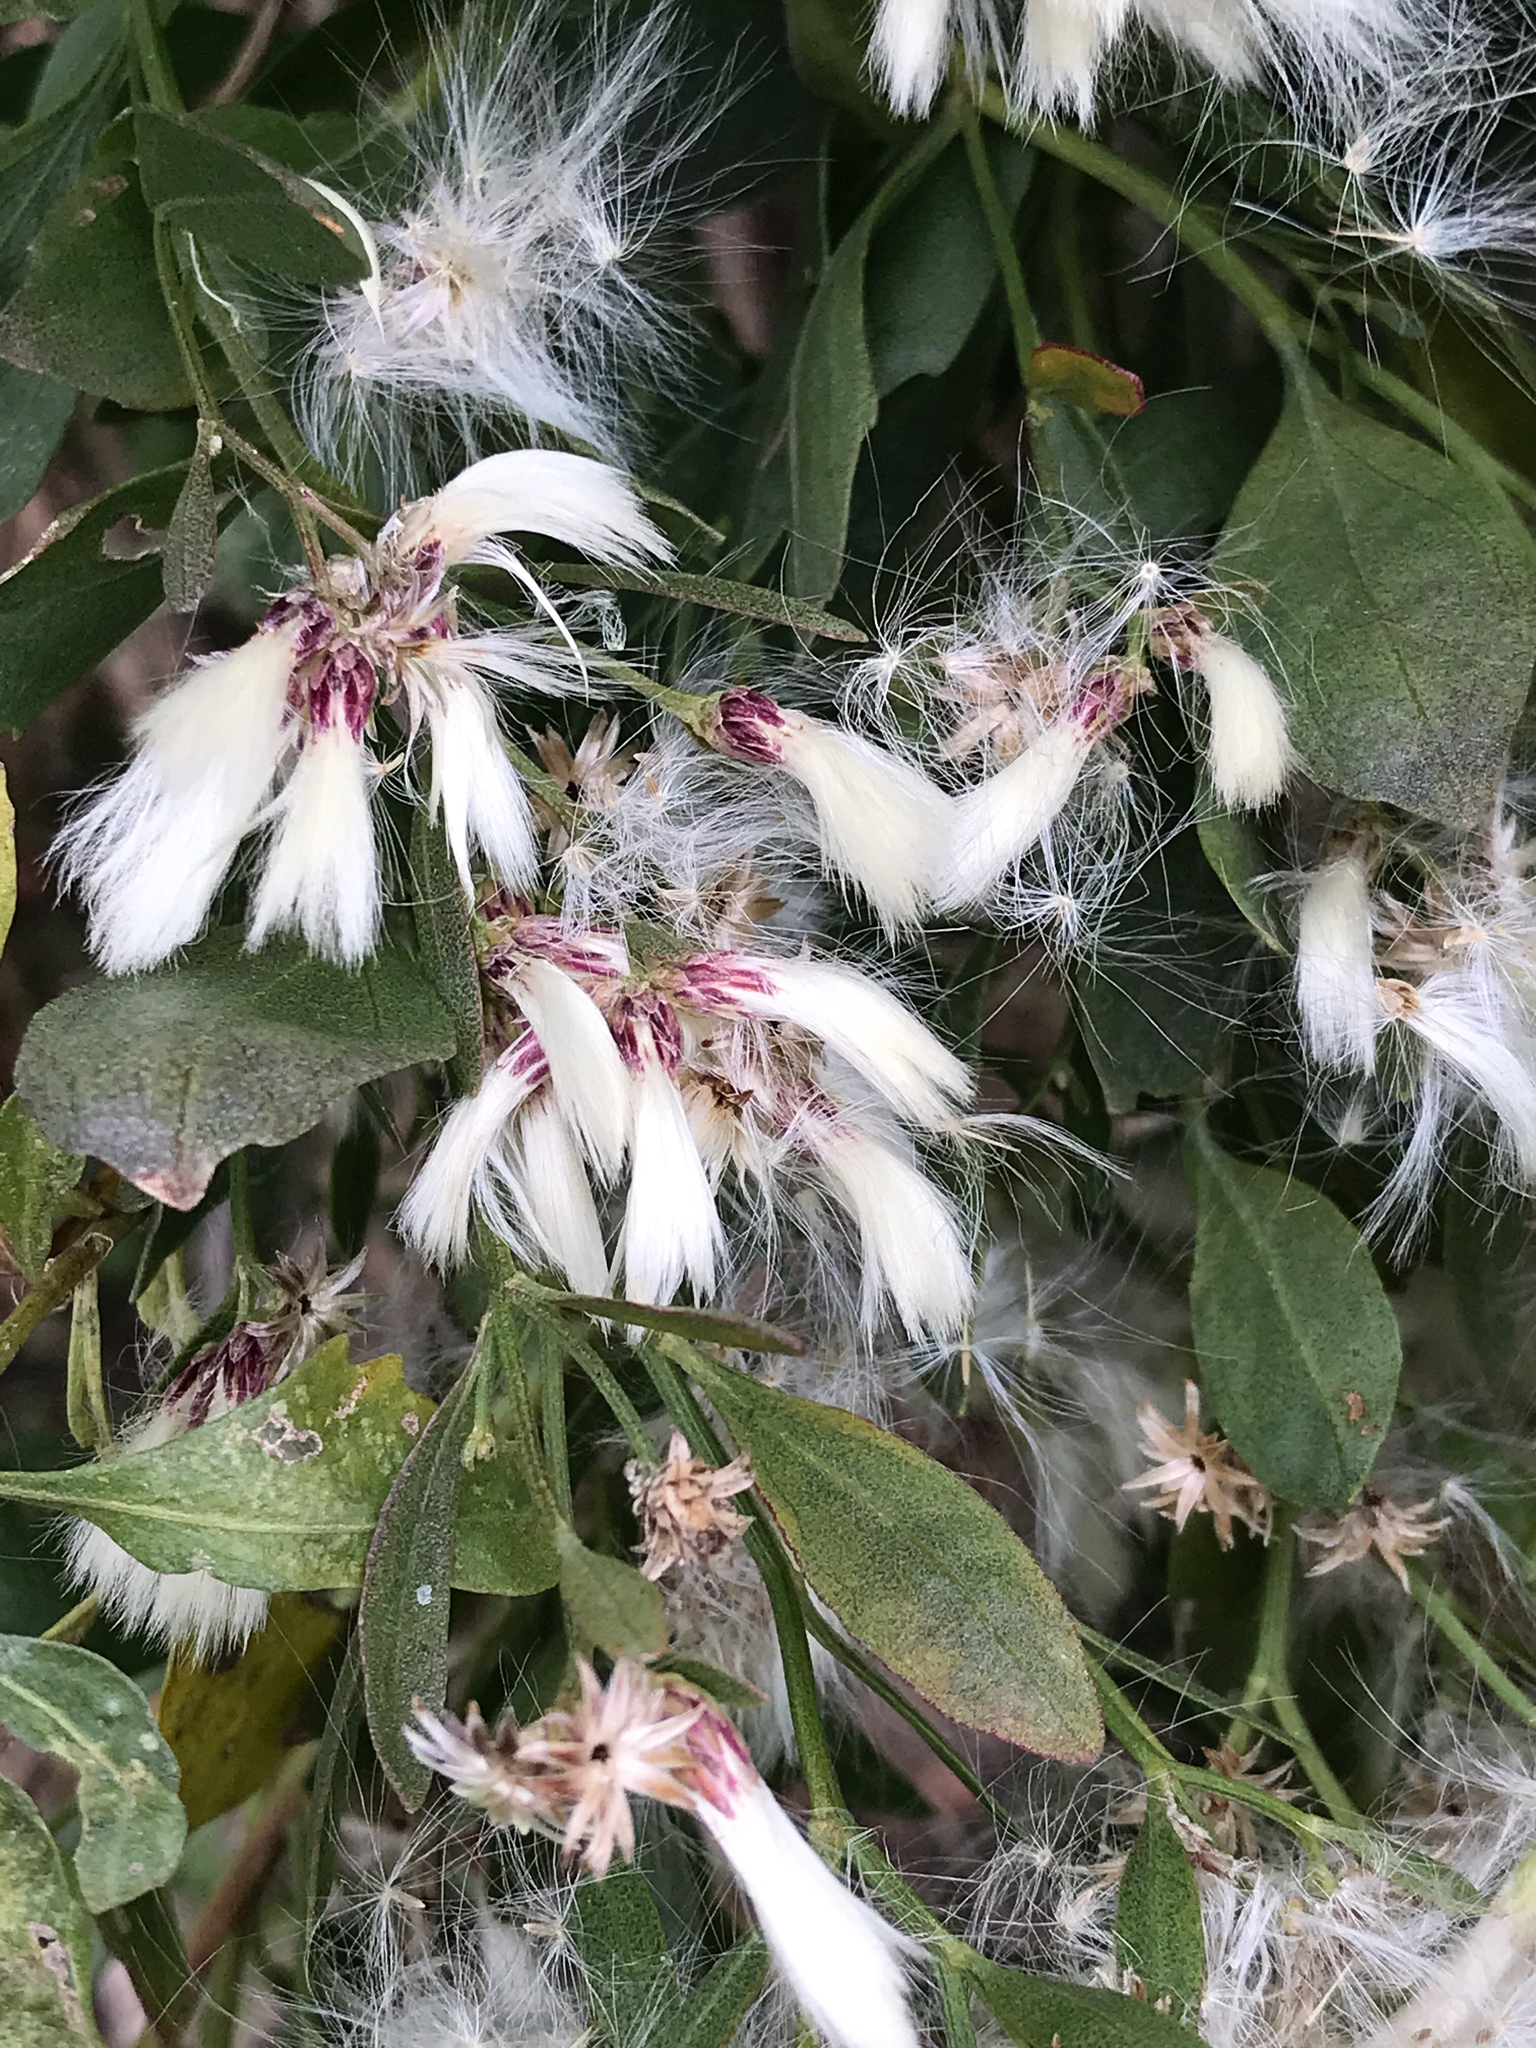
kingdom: Plantae
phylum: Tracheophyta
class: Magnoliopsida
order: Asterales
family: Asteraceae
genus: Baccharis
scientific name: Baccharis halimifolia
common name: Eastern baccharis
